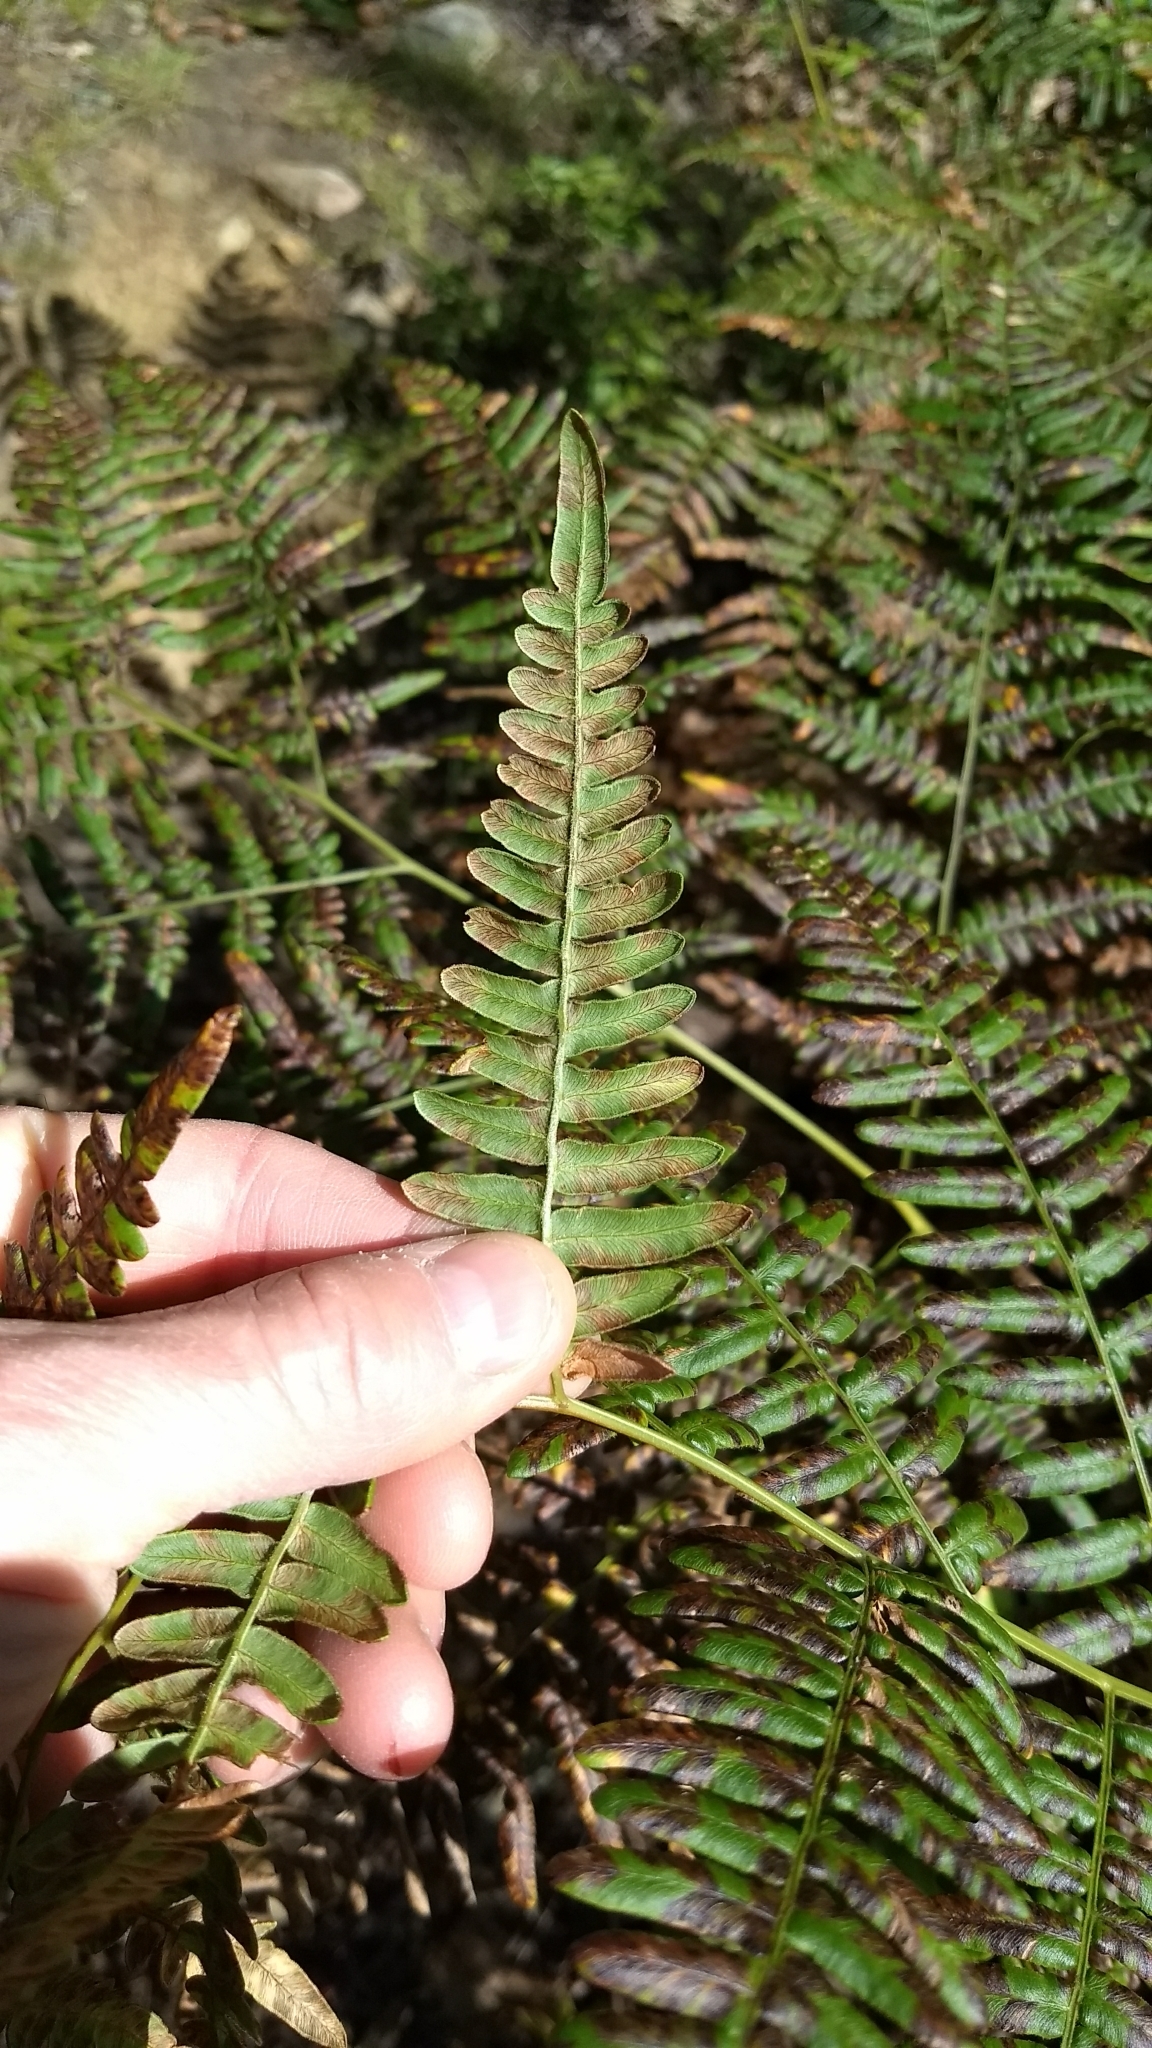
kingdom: Plantae
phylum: Tracheophyta
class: Polypodiopsida
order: Polypodiales
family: Dennstaedtiaceae
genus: Pteridium
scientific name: Pteridium aquilinum
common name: Bracken
